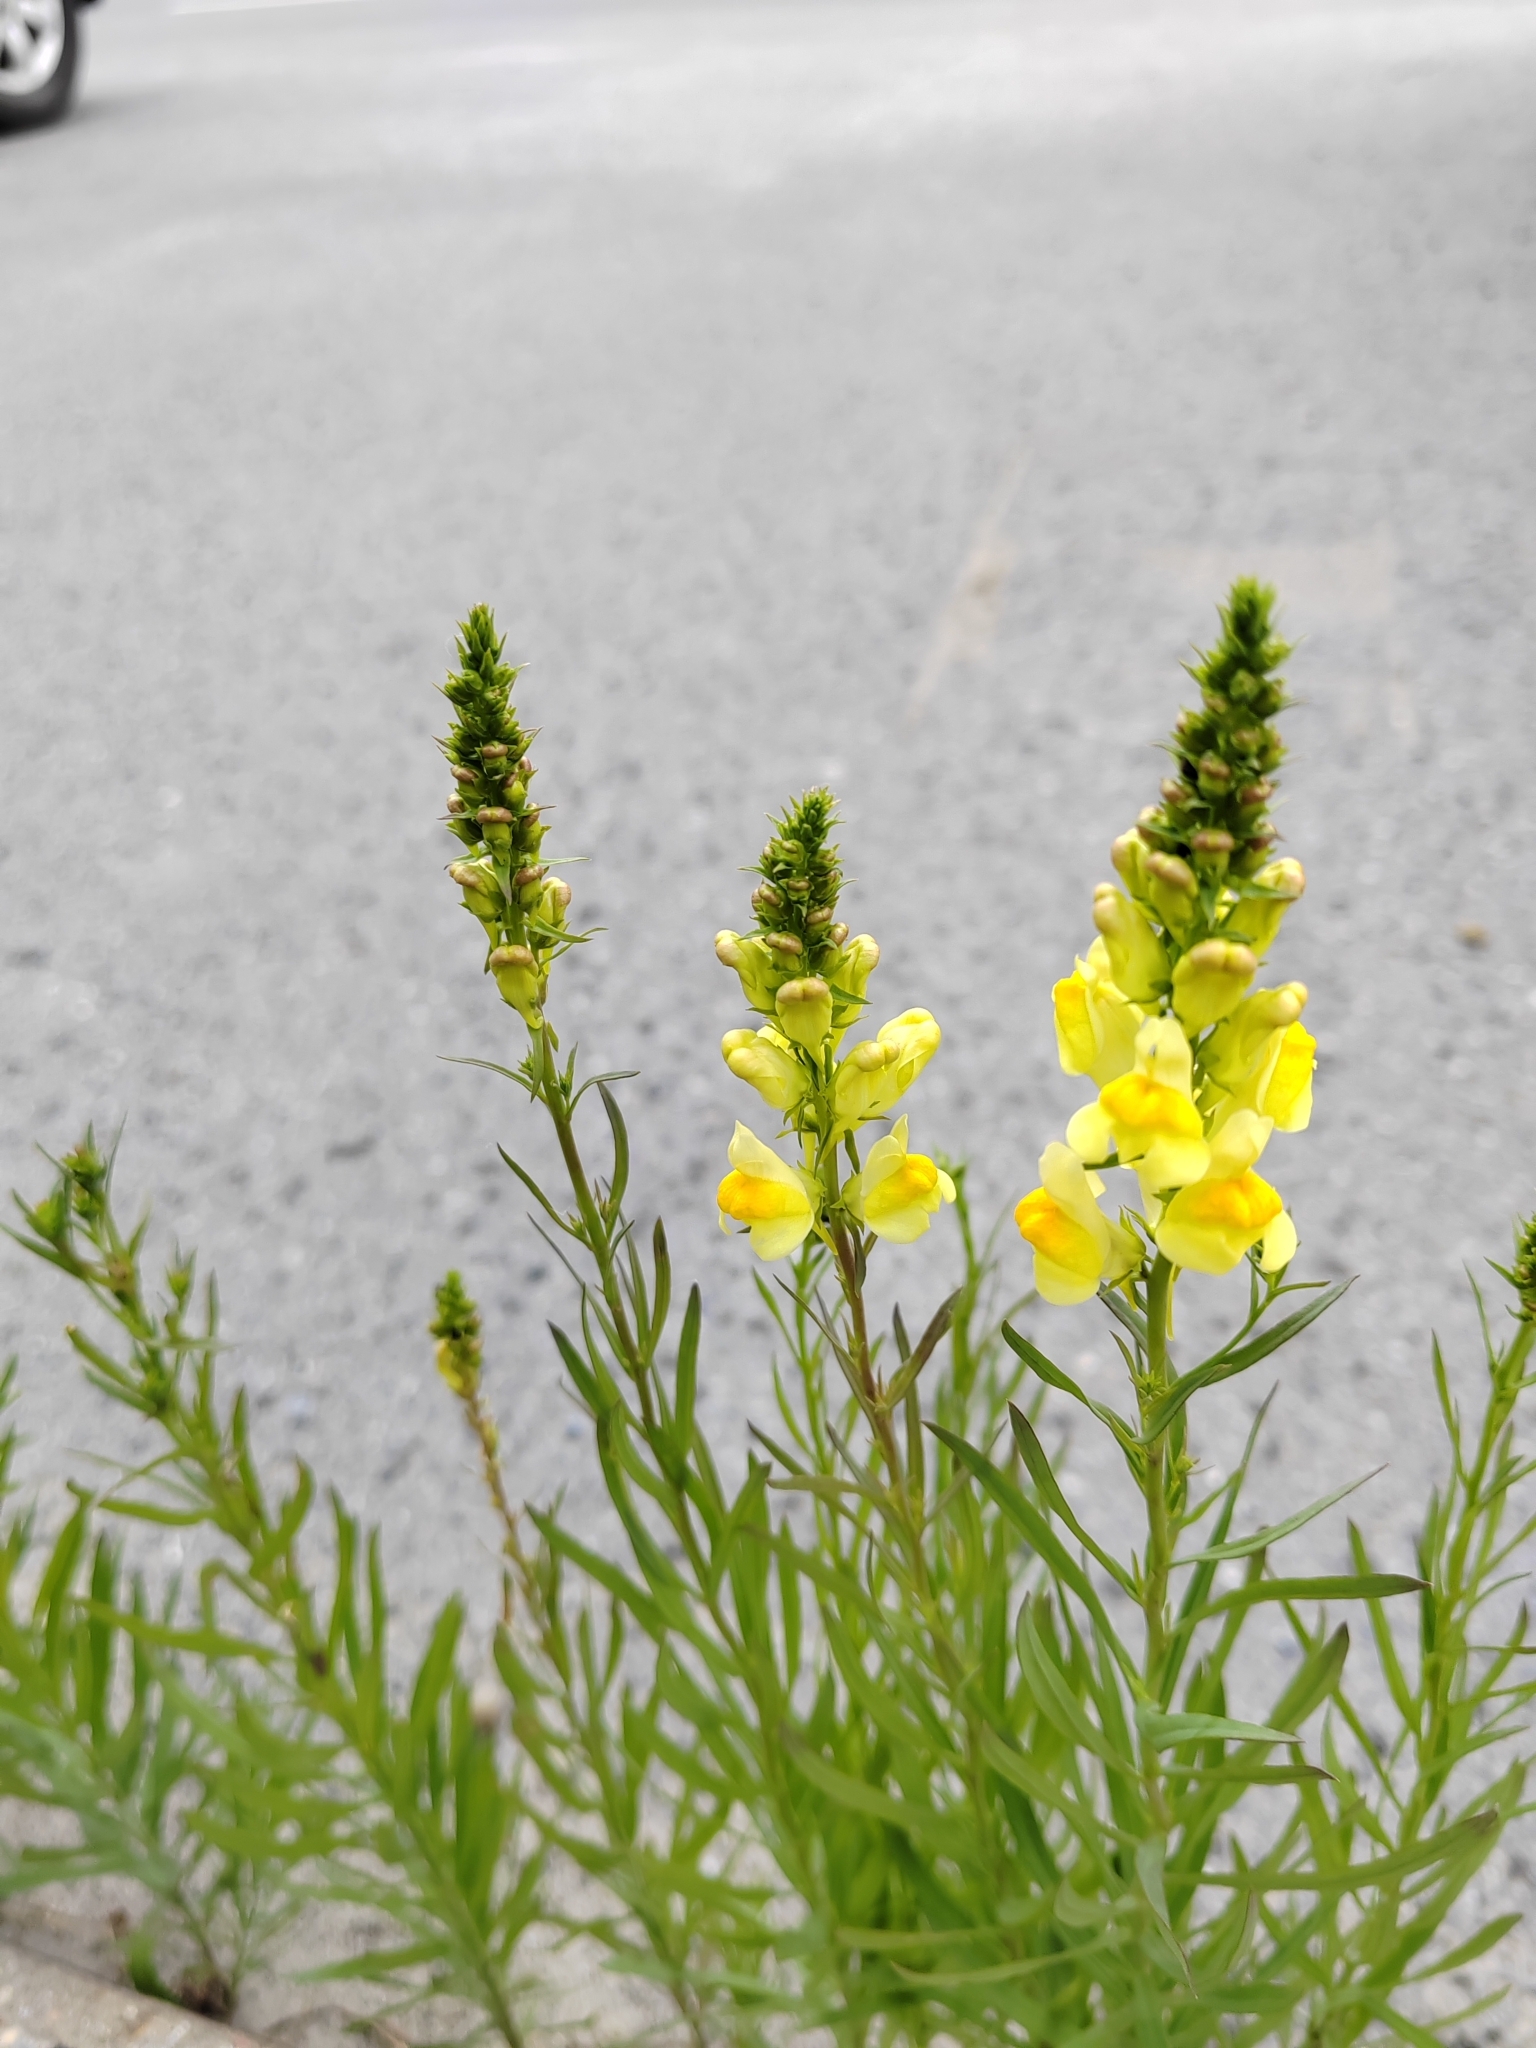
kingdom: Plantae
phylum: Tracheophyta
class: Magnoliopsida
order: Lamiales
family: Plantaginaceae
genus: Linaria
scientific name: Linaria vulgaris
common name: Butter and eggs
